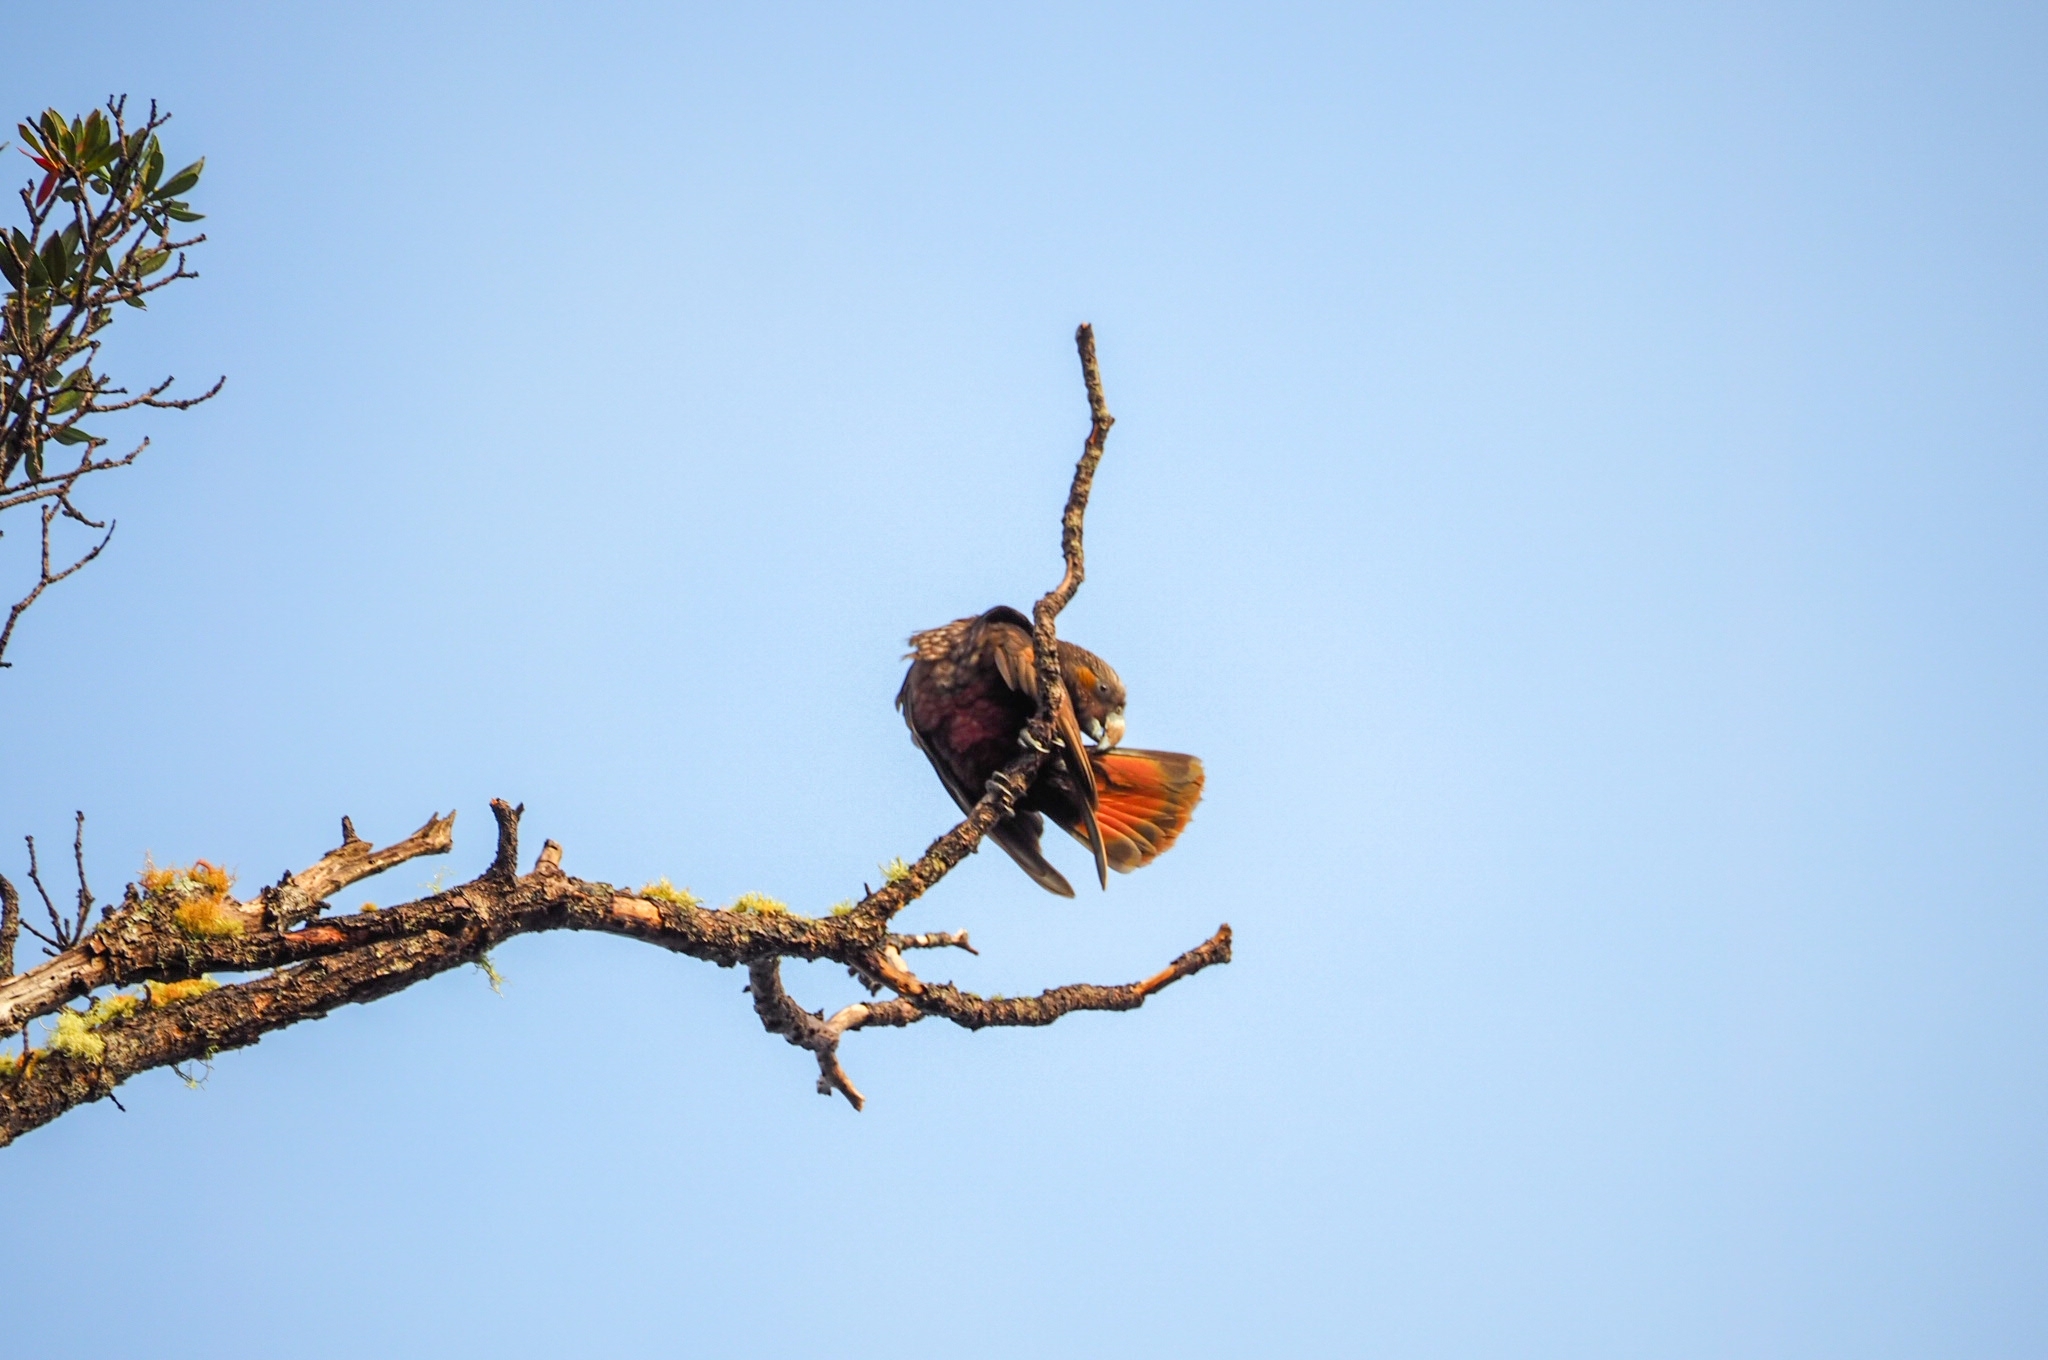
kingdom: Animalia
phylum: Chordata
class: Aves
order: Psittaciformes
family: Psittacidae
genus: Nestor
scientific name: Nestor meridionalis
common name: New zealand kaka
